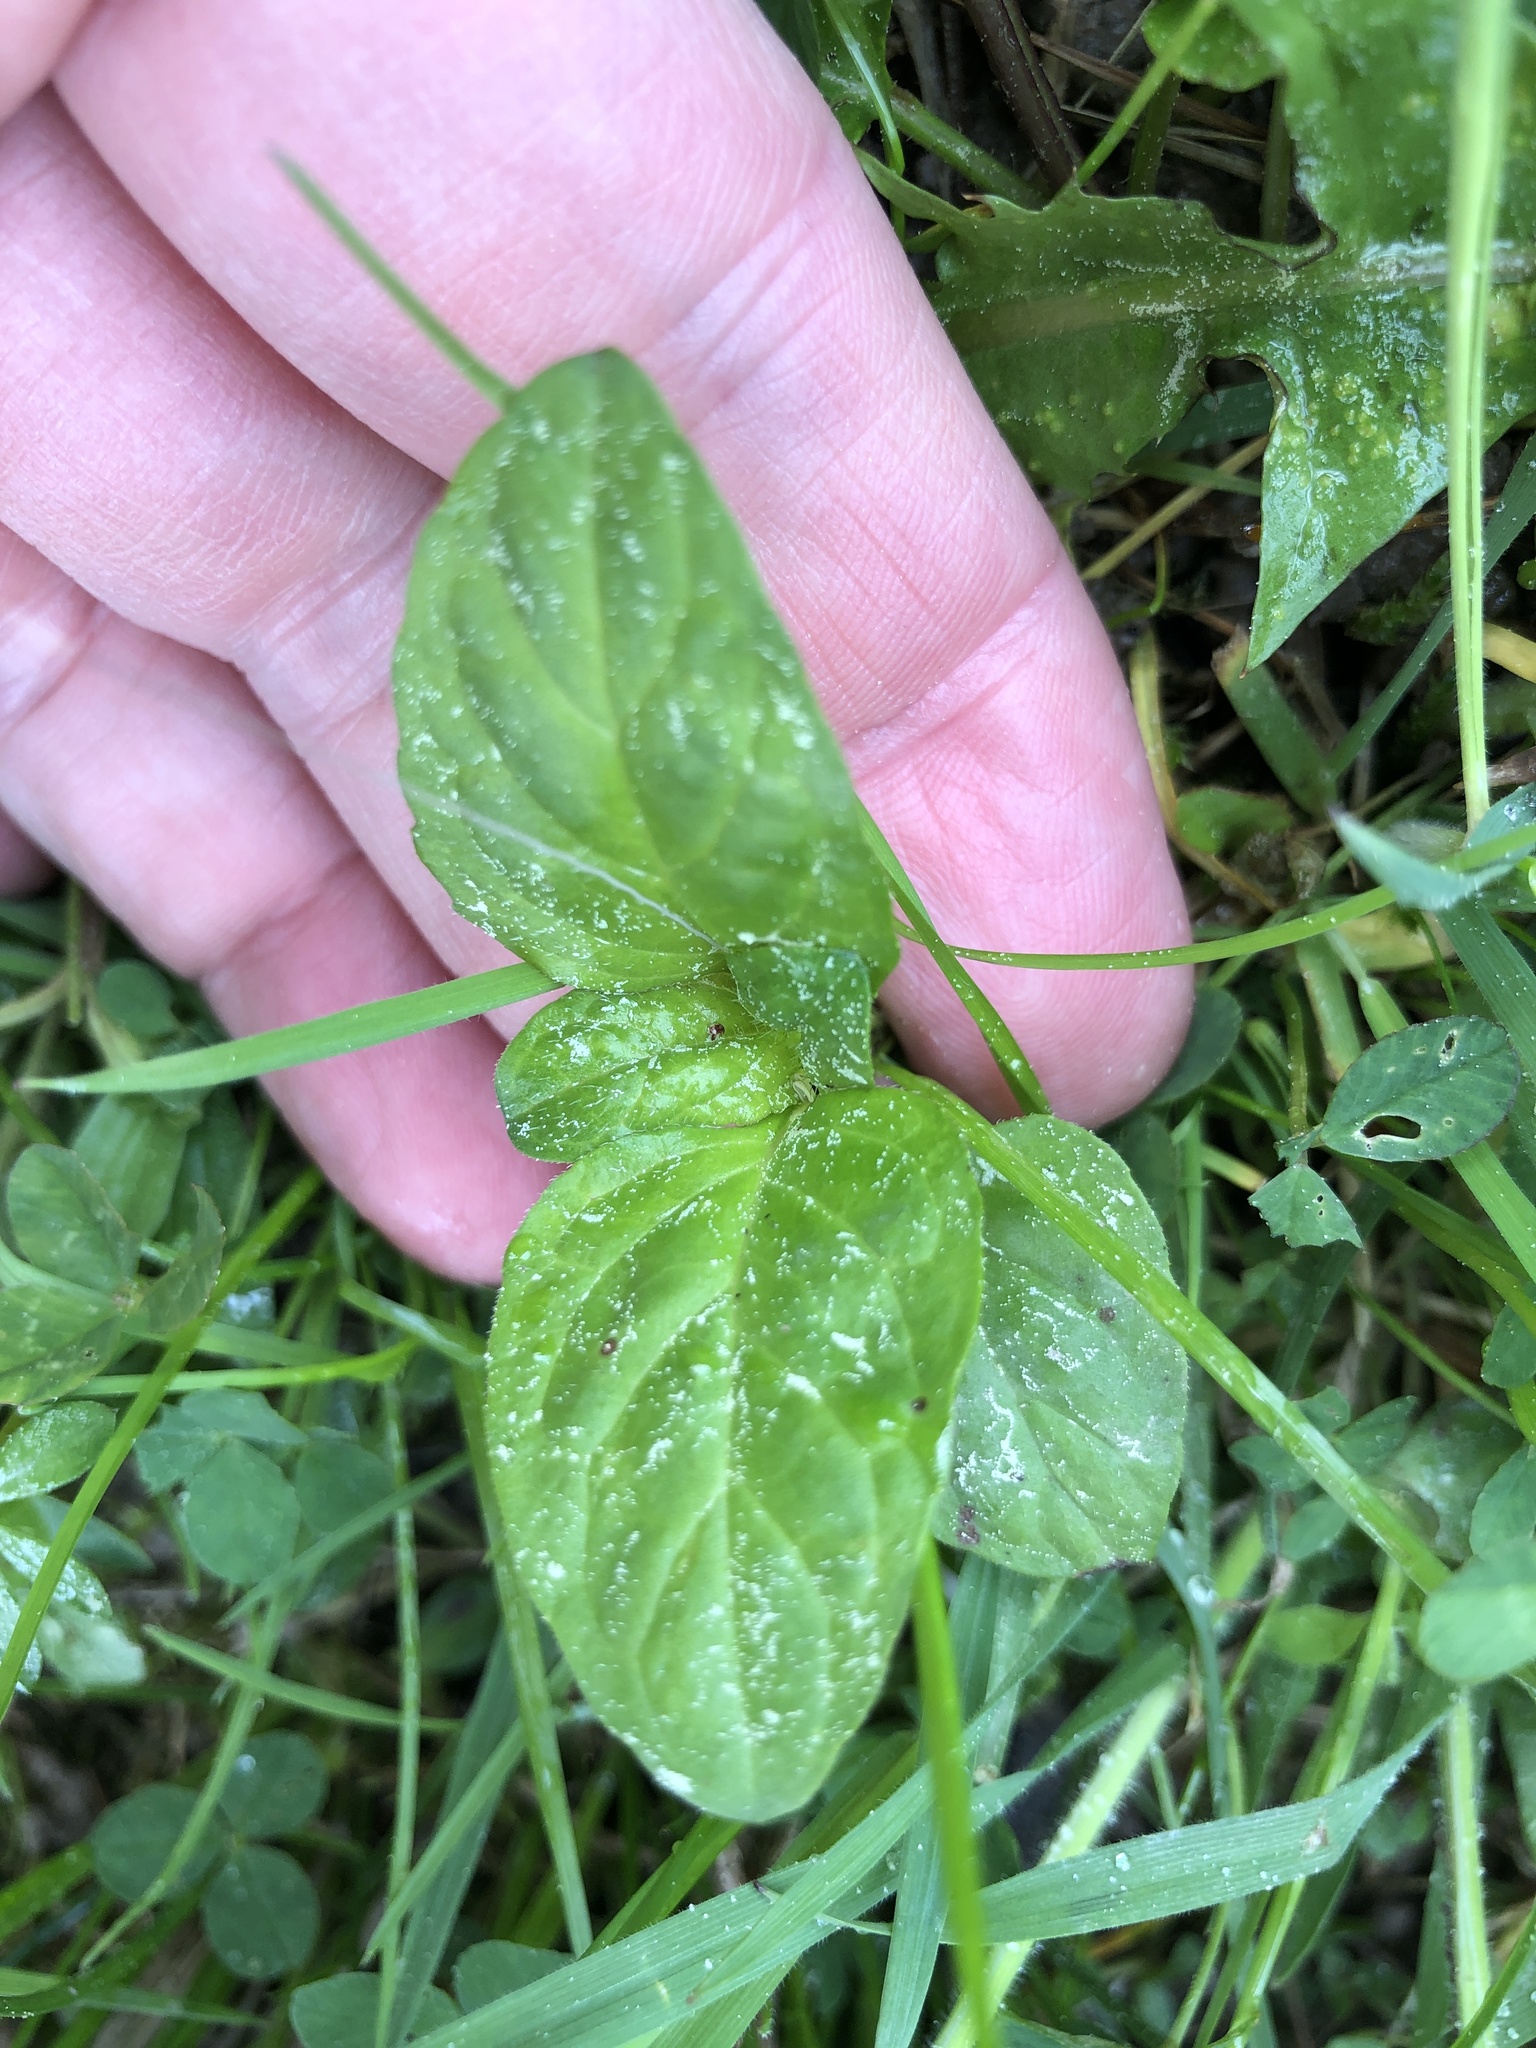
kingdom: Plantae
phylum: Tracheophyta
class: Magnoliopsida
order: Lamiales
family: Lamiaceae
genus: Prunella
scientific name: Prunella vulgaris
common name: Heal-all
